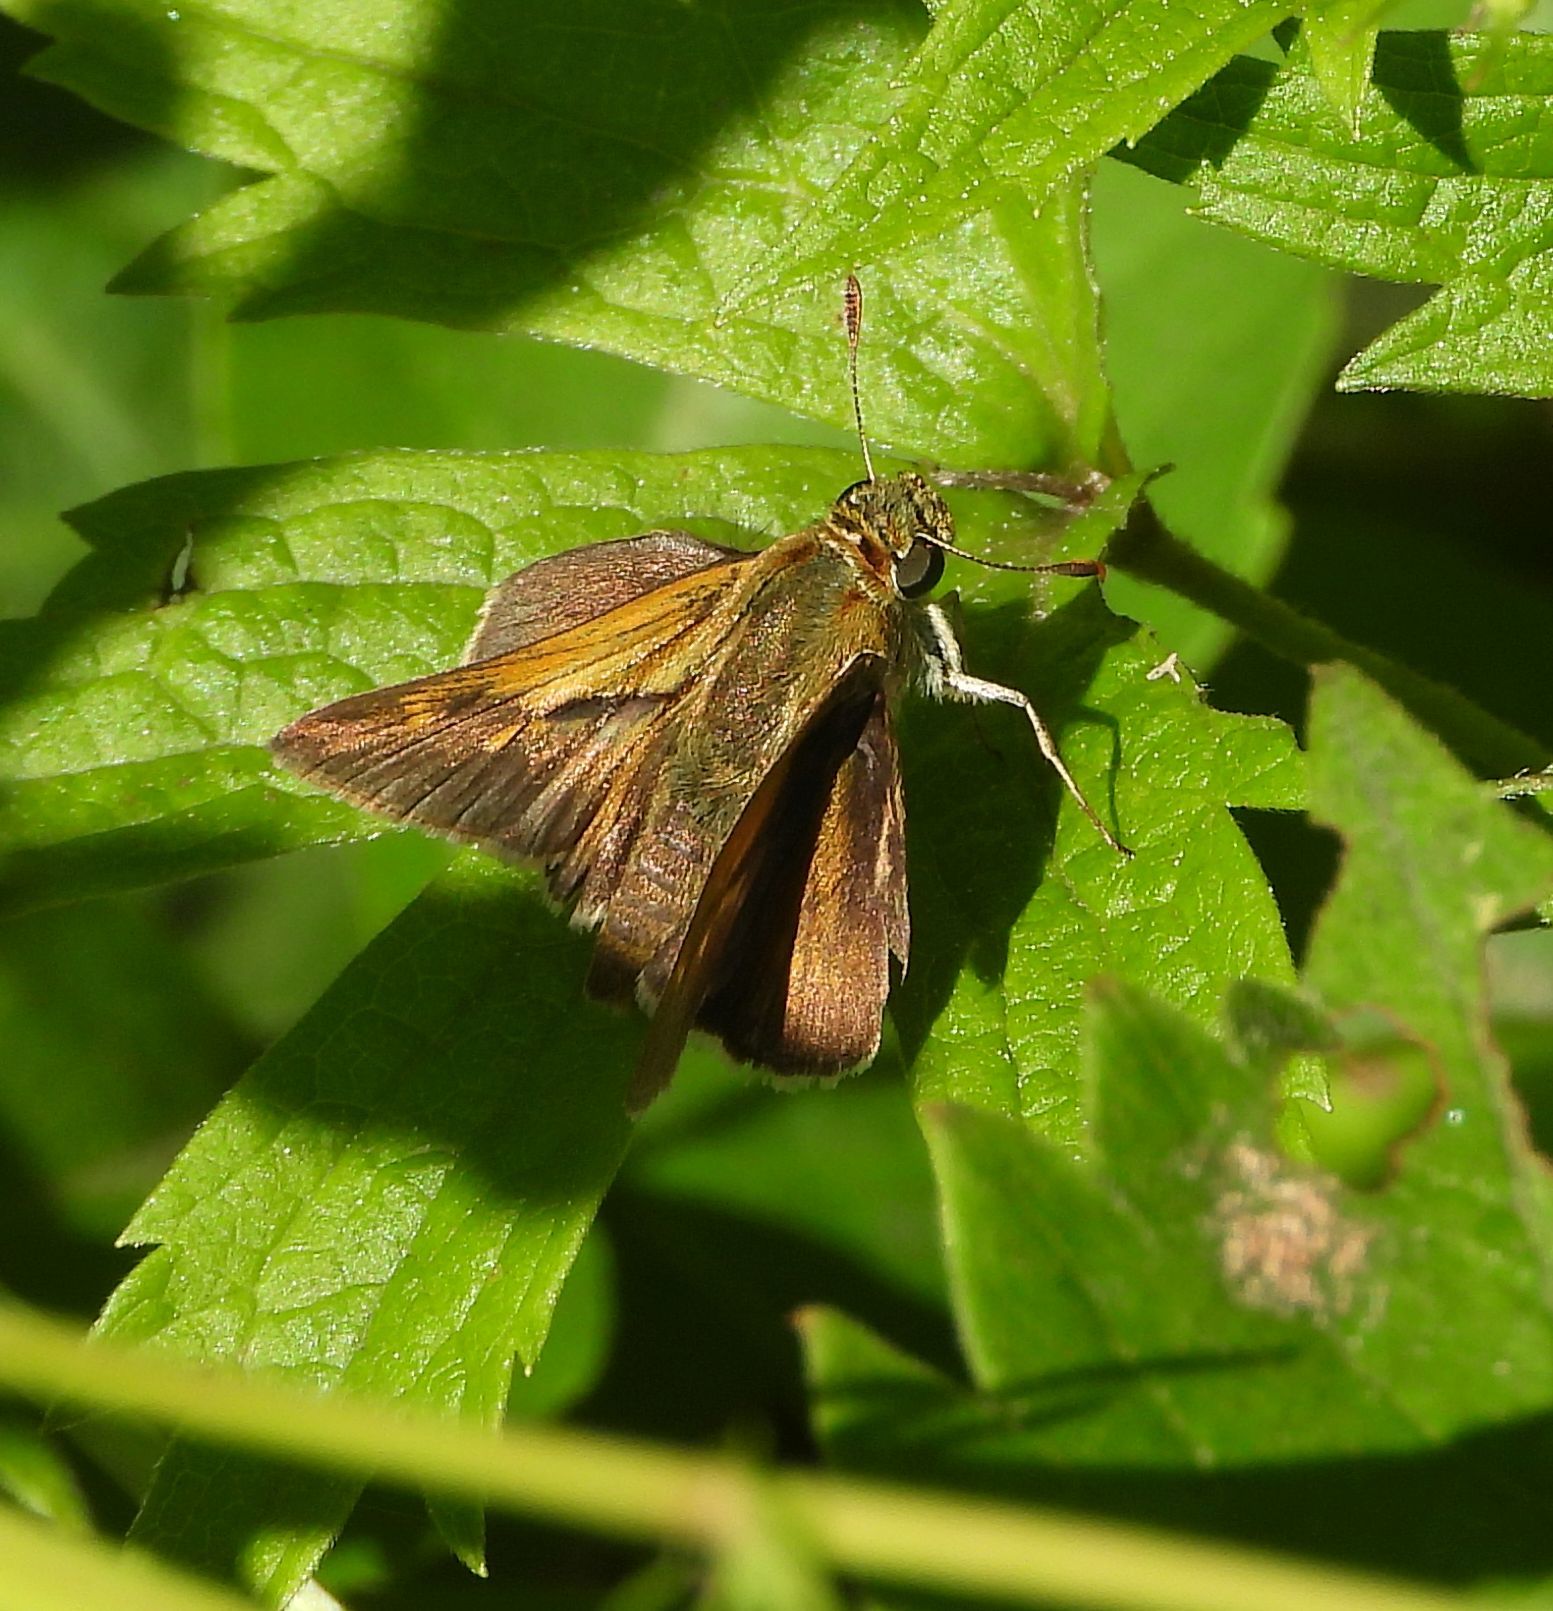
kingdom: Animalia
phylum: Arthropoda
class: Insecta
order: Lepidoptera
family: Hesperiidae
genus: Polites
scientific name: Polites origenes
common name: Crossline skipper
